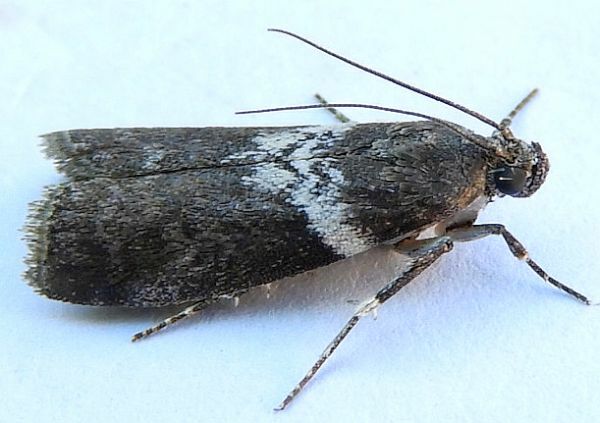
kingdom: Animalia
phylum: Arthropoda
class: Insecta
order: Lepidoptera
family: Pyralidae
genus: Salebriaria
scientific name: Salebriaria fasciata
